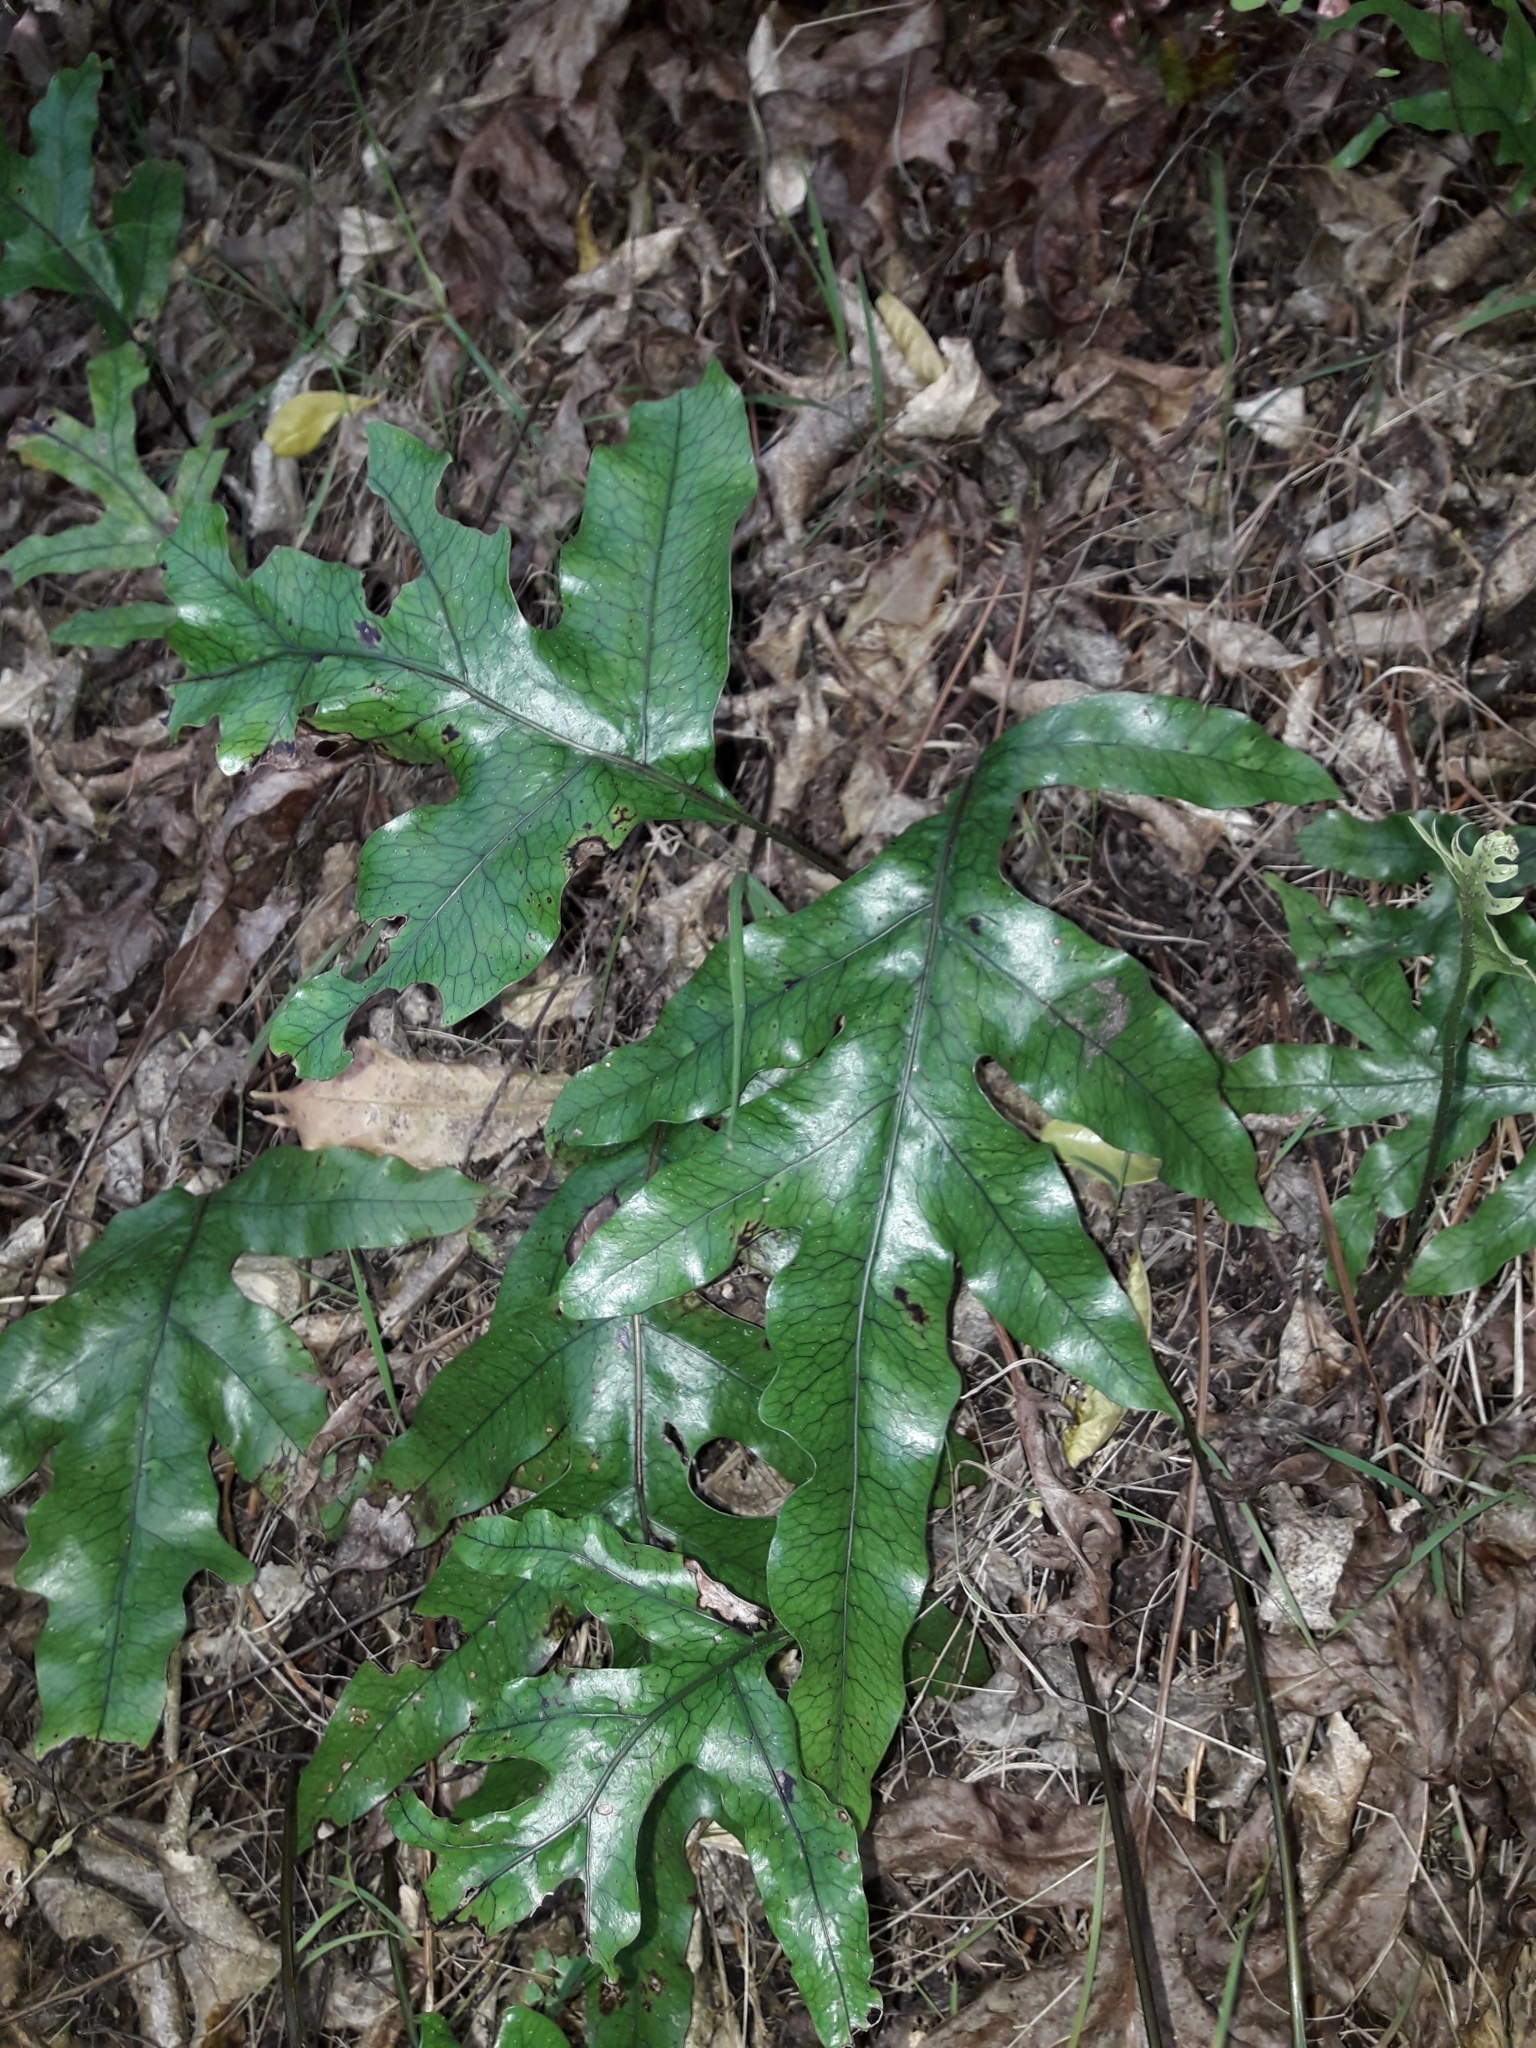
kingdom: Plantae
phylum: Tracheophyta
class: Polypodiopsida
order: Polypodiales
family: Polypodiaceae
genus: Lecanopteris
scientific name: Lecanopteris pustulata
